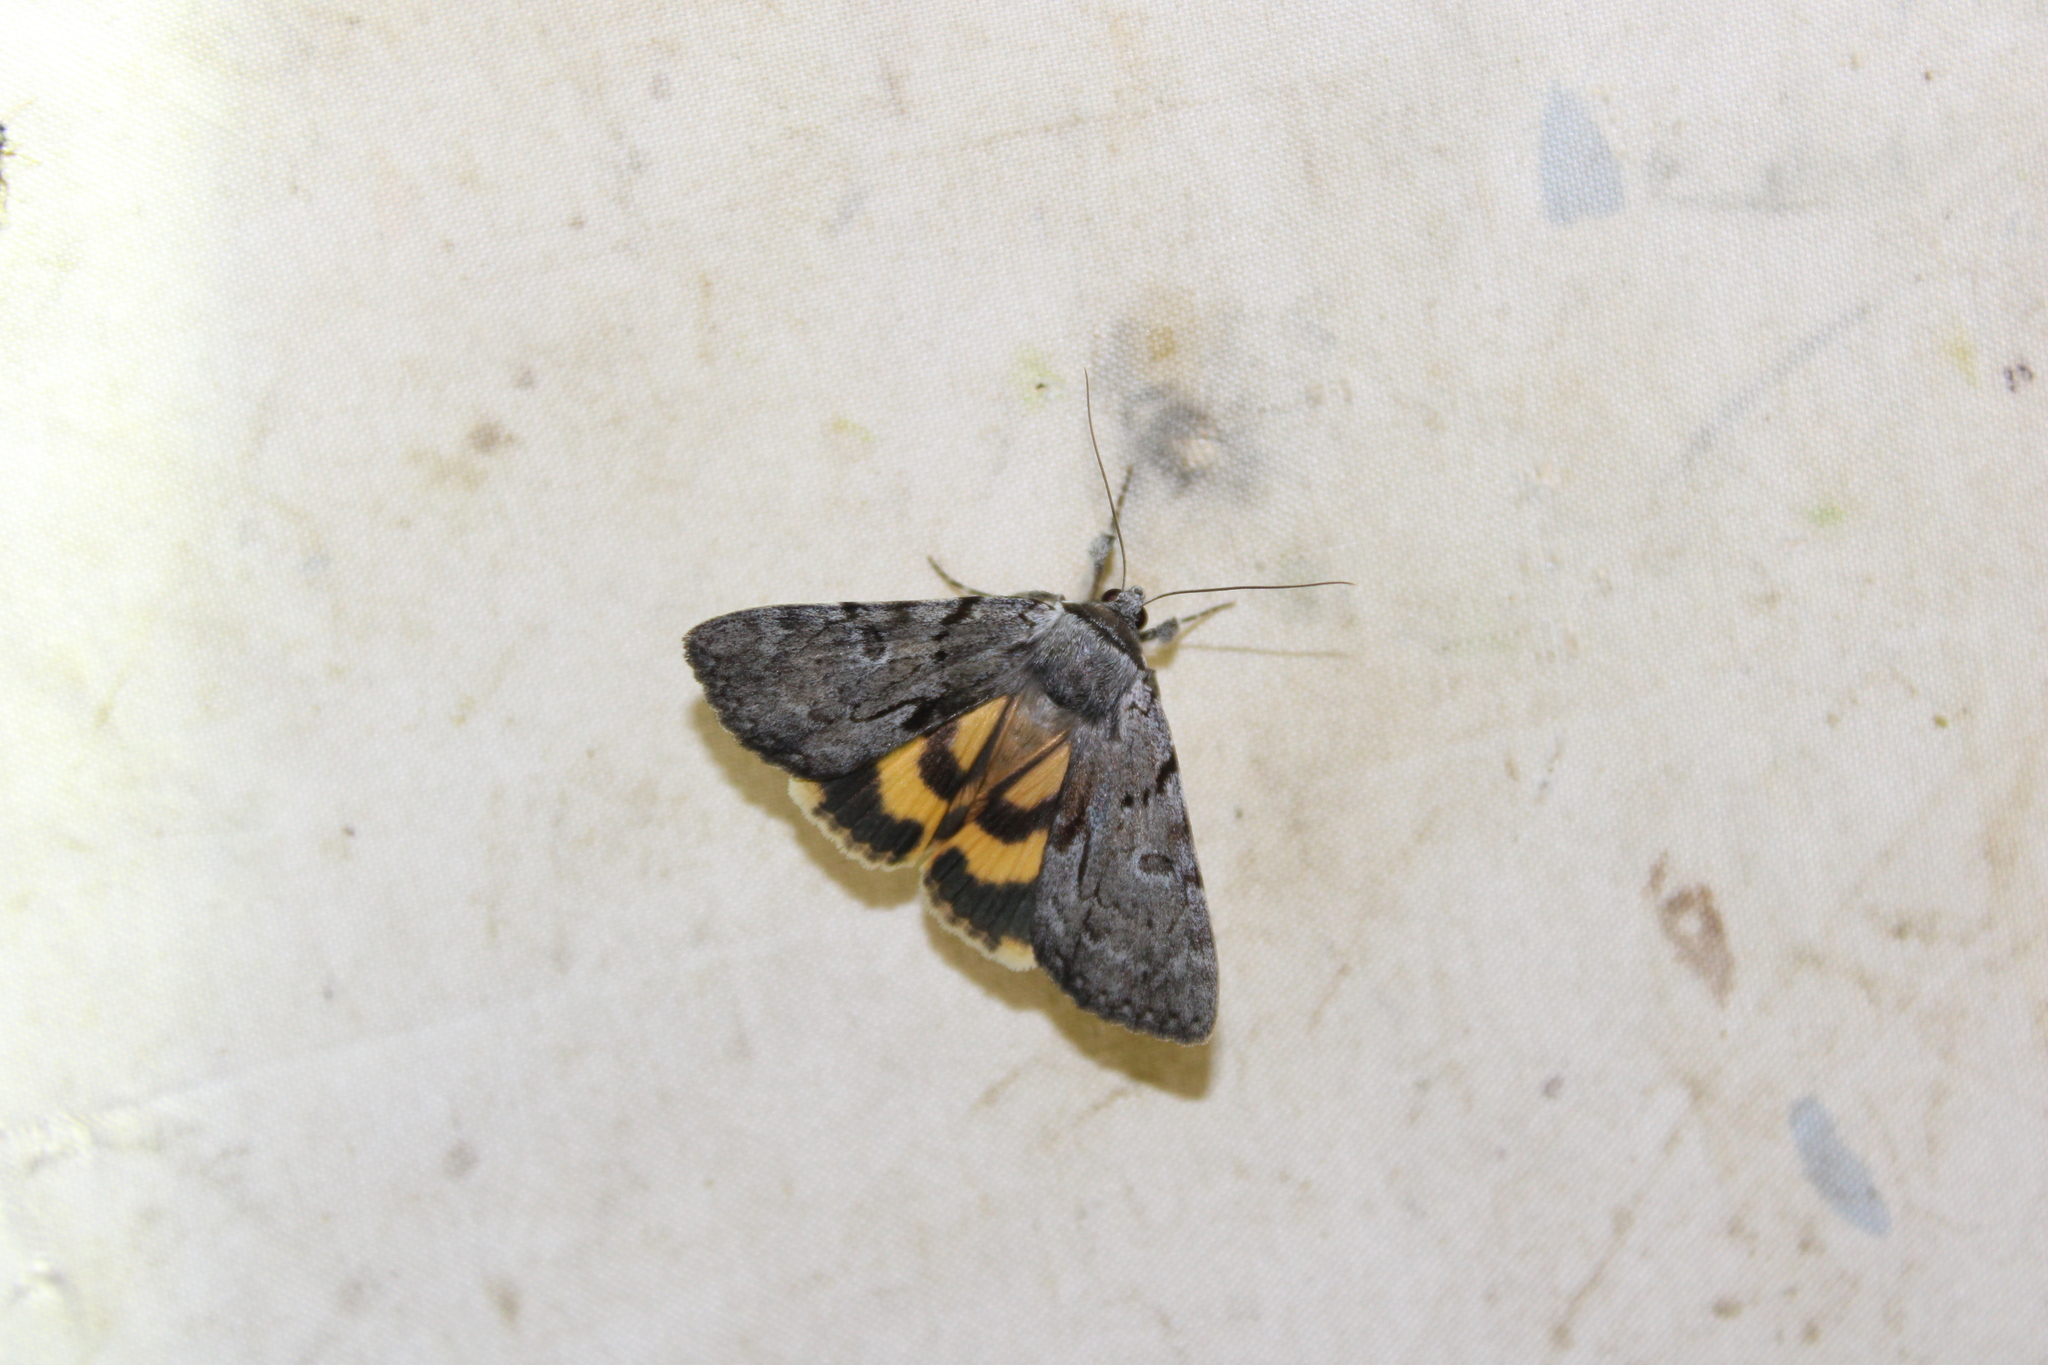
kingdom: Animalia
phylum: Arthropoda
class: Insecta
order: Lepidoptera
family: Erebidae
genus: Catocala
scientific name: Catocala sordida
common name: Sordid underwing
